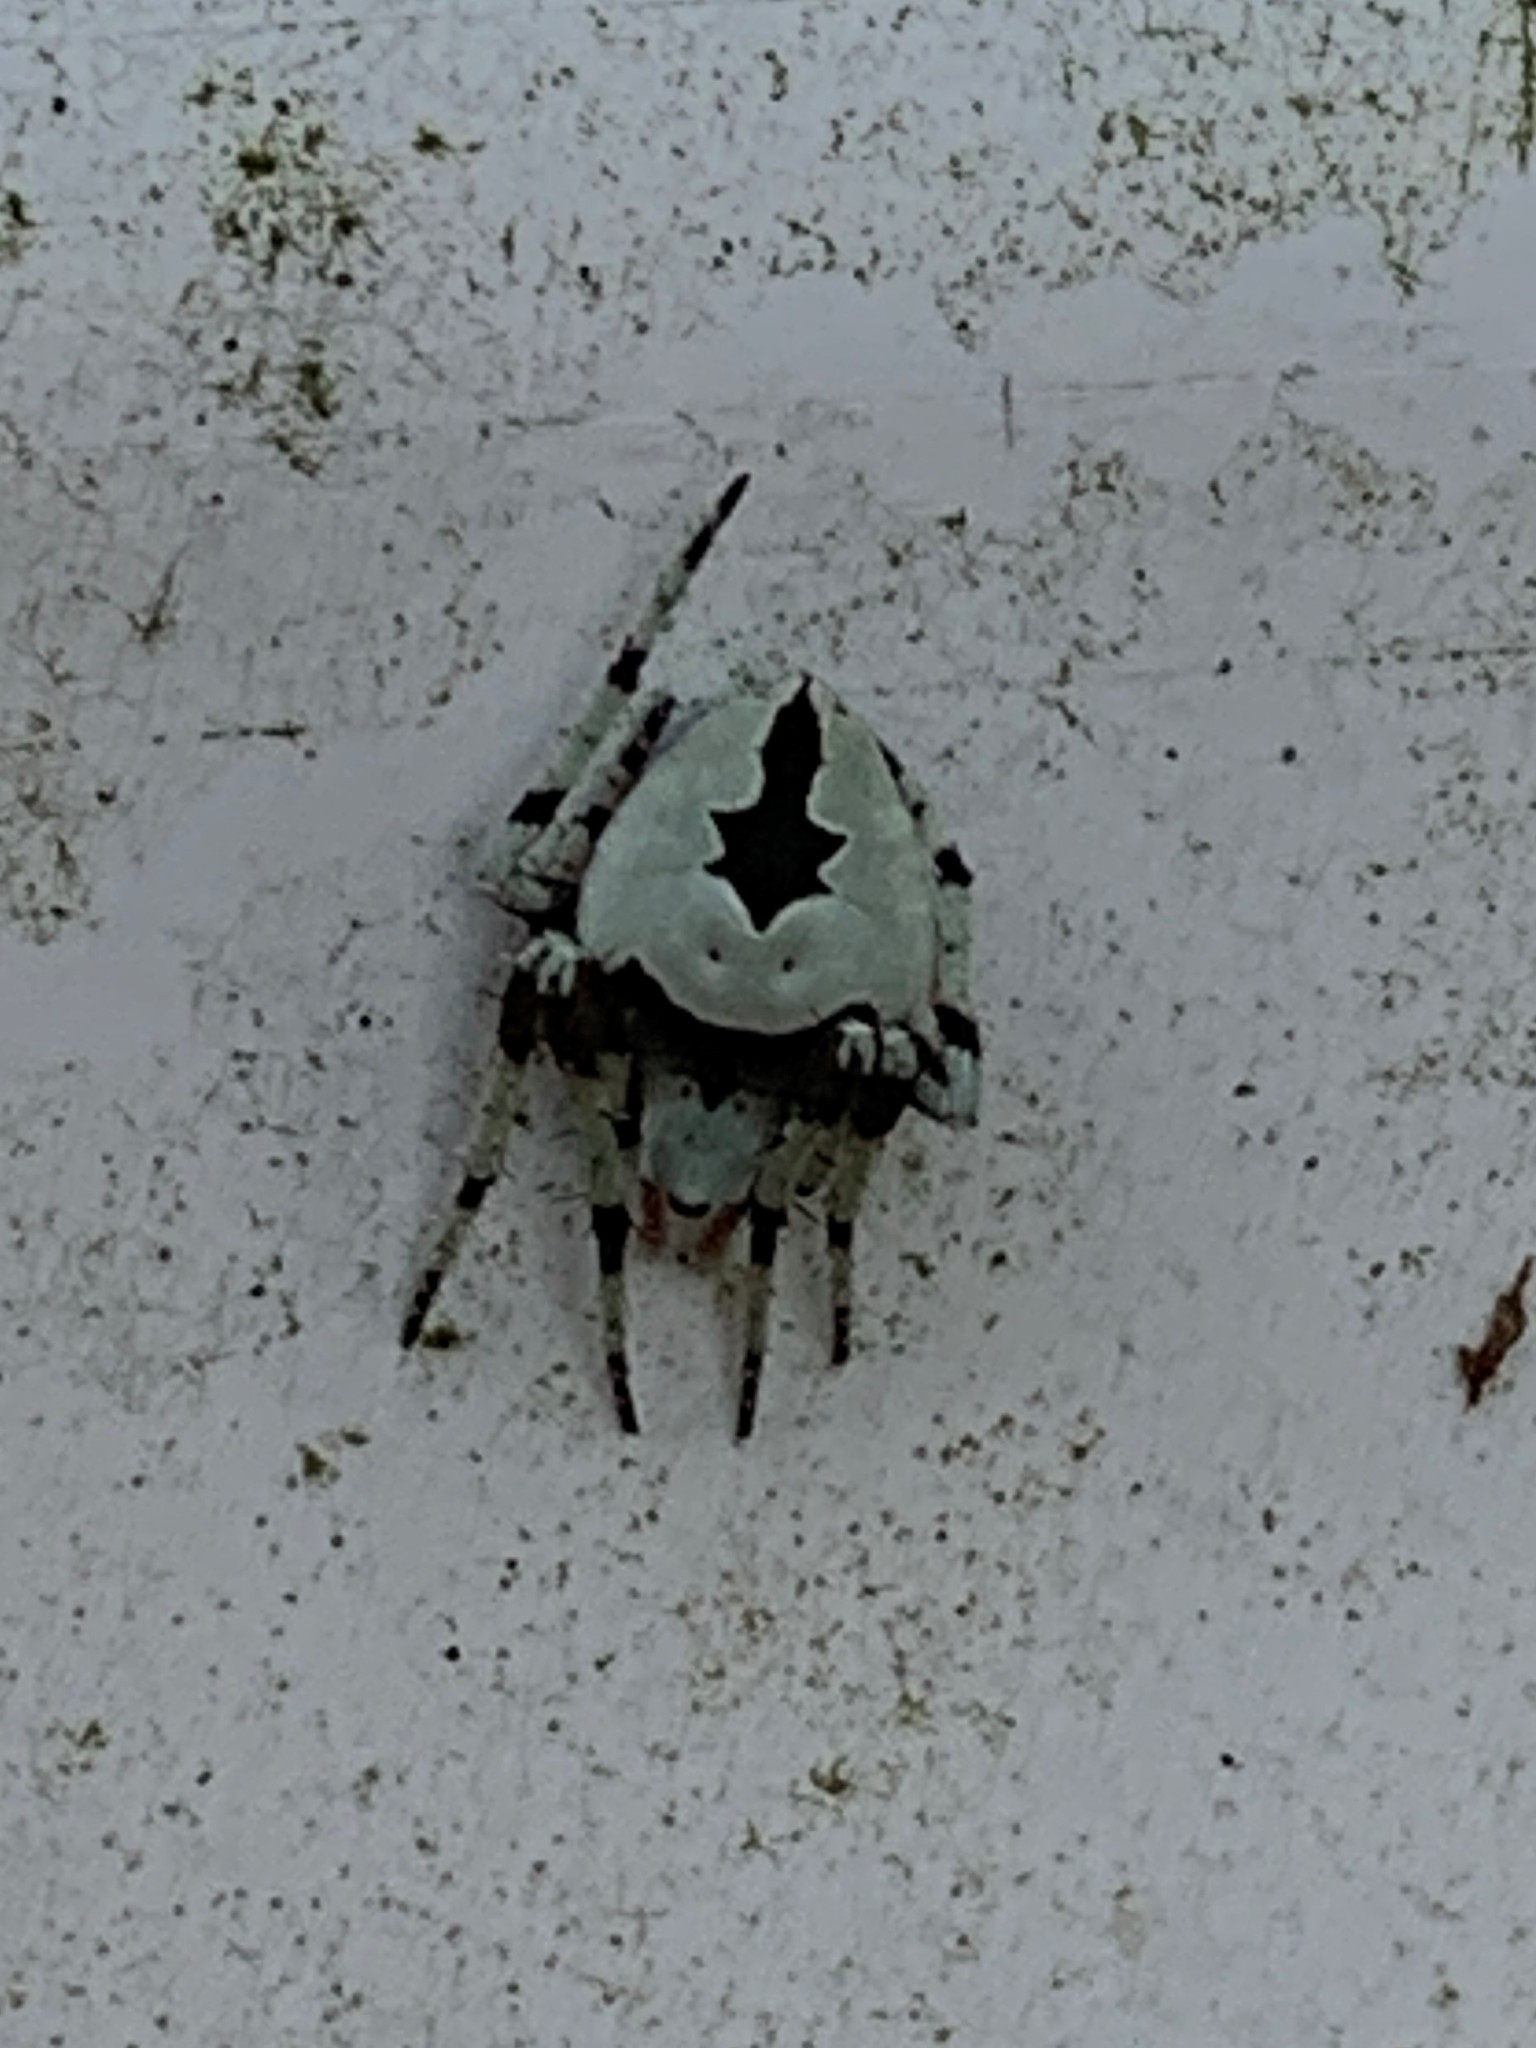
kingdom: Animalia
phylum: Arthropoda
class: Arachnida
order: Araneae
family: Araneidae
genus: Eustala
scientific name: Eustala anastera
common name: Orb weavers
